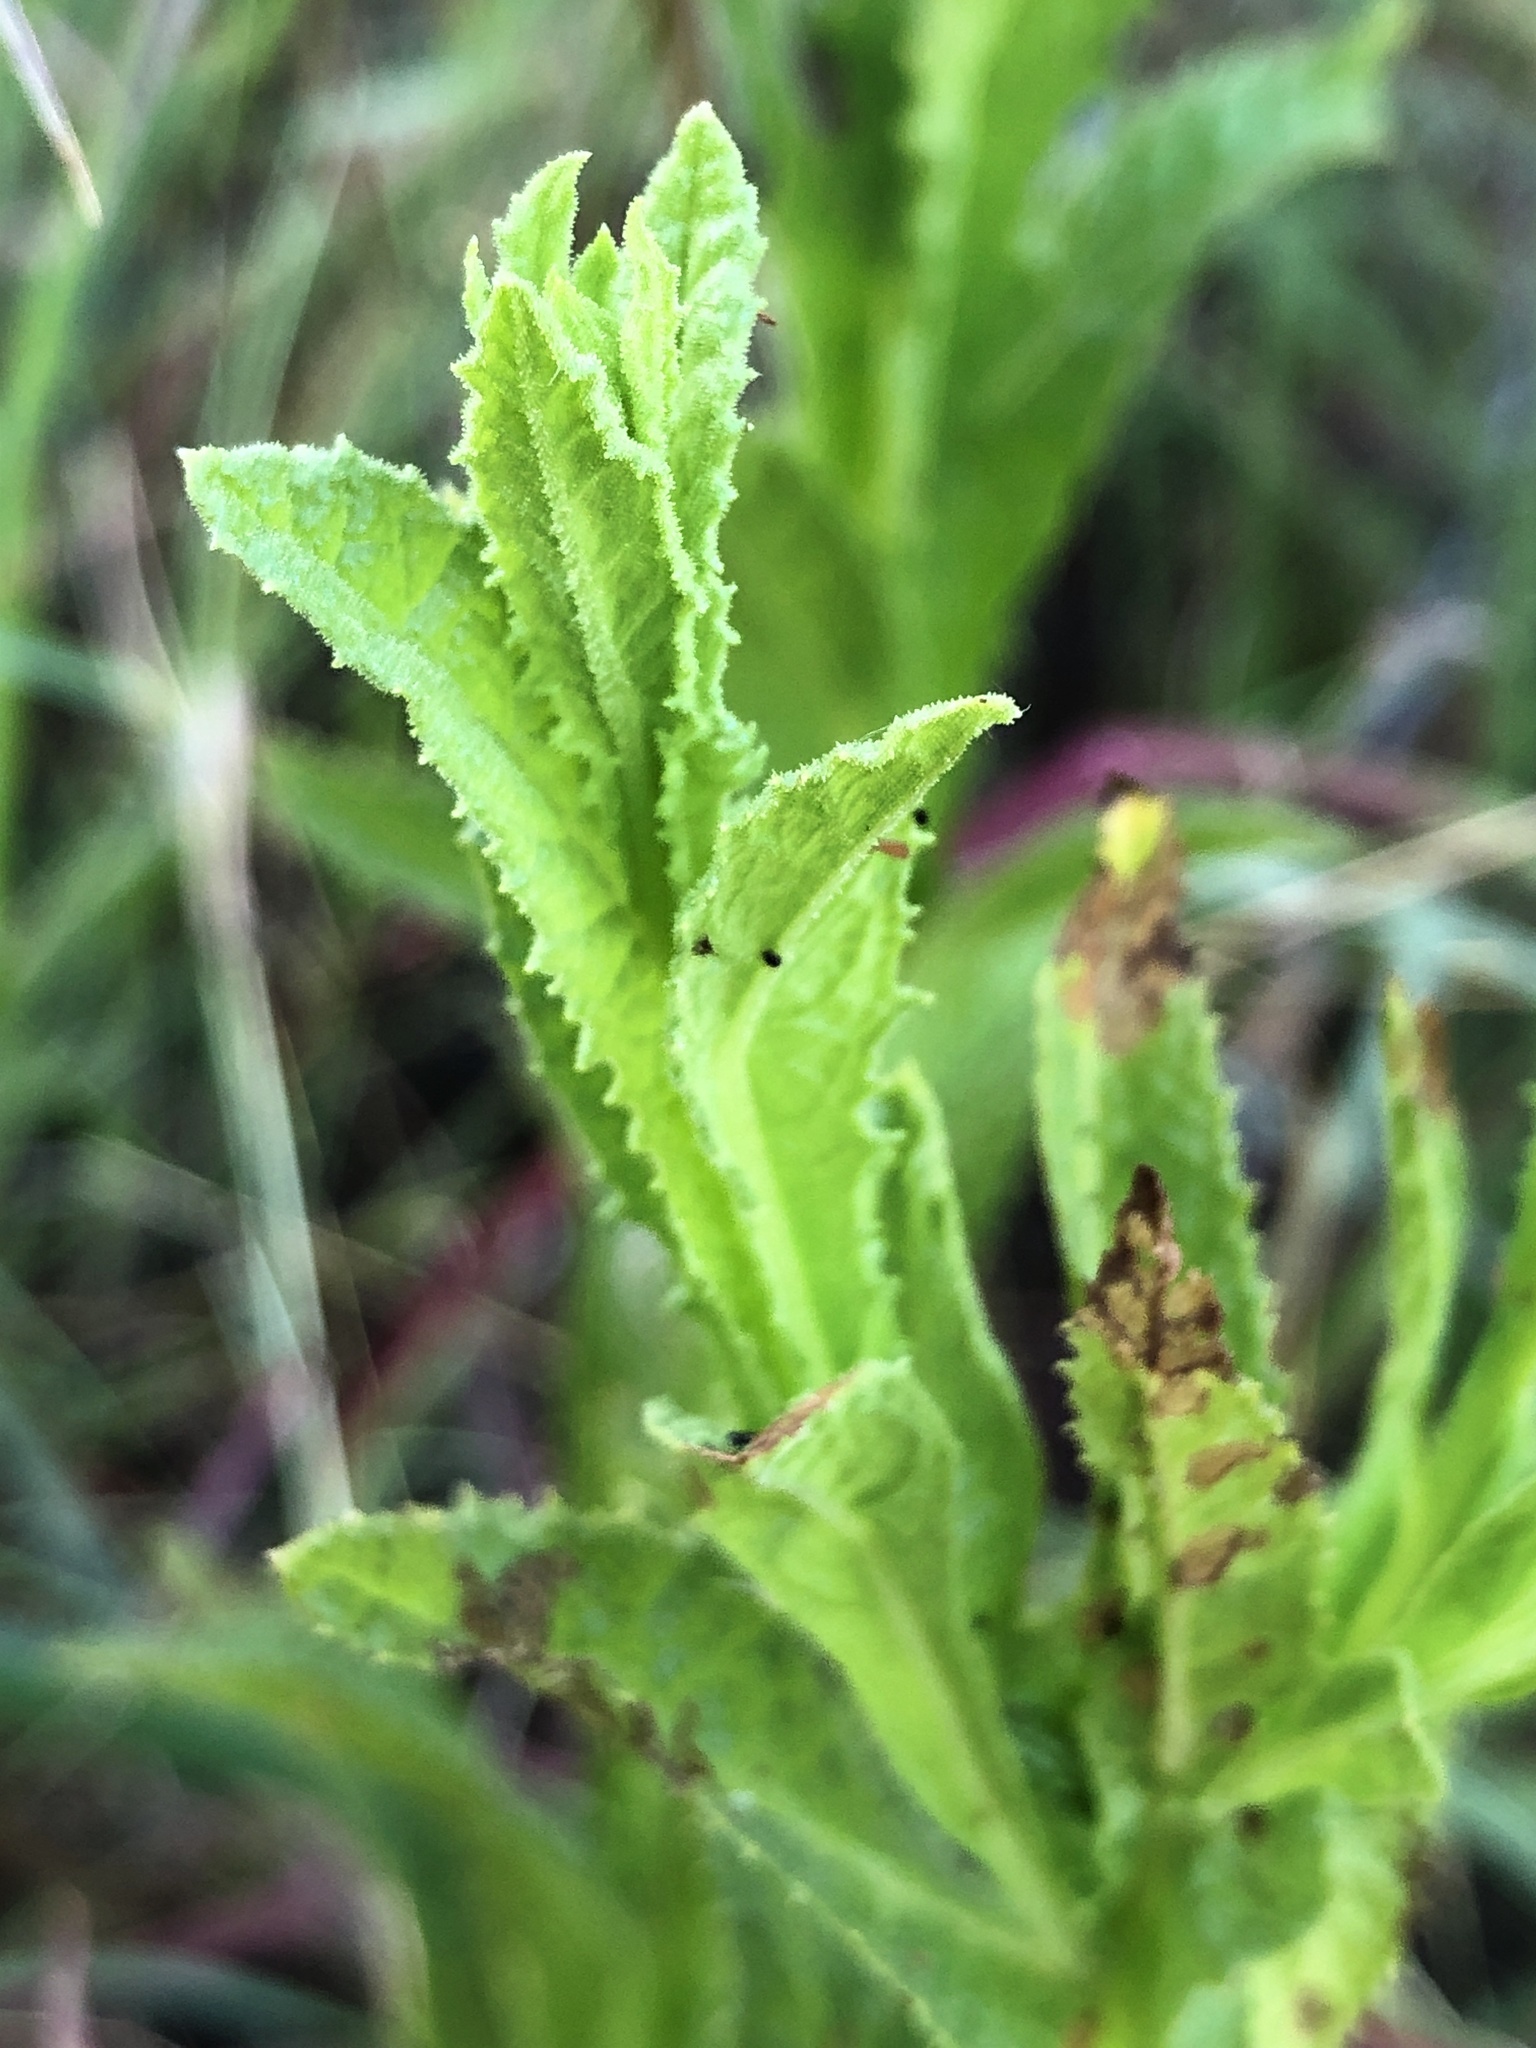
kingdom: Plantae
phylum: Tracheophyta
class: Magnoliopsida
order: Asterales
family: Asteraceae
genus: Pterocaulon
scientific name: Pterocaulon serrulatum
